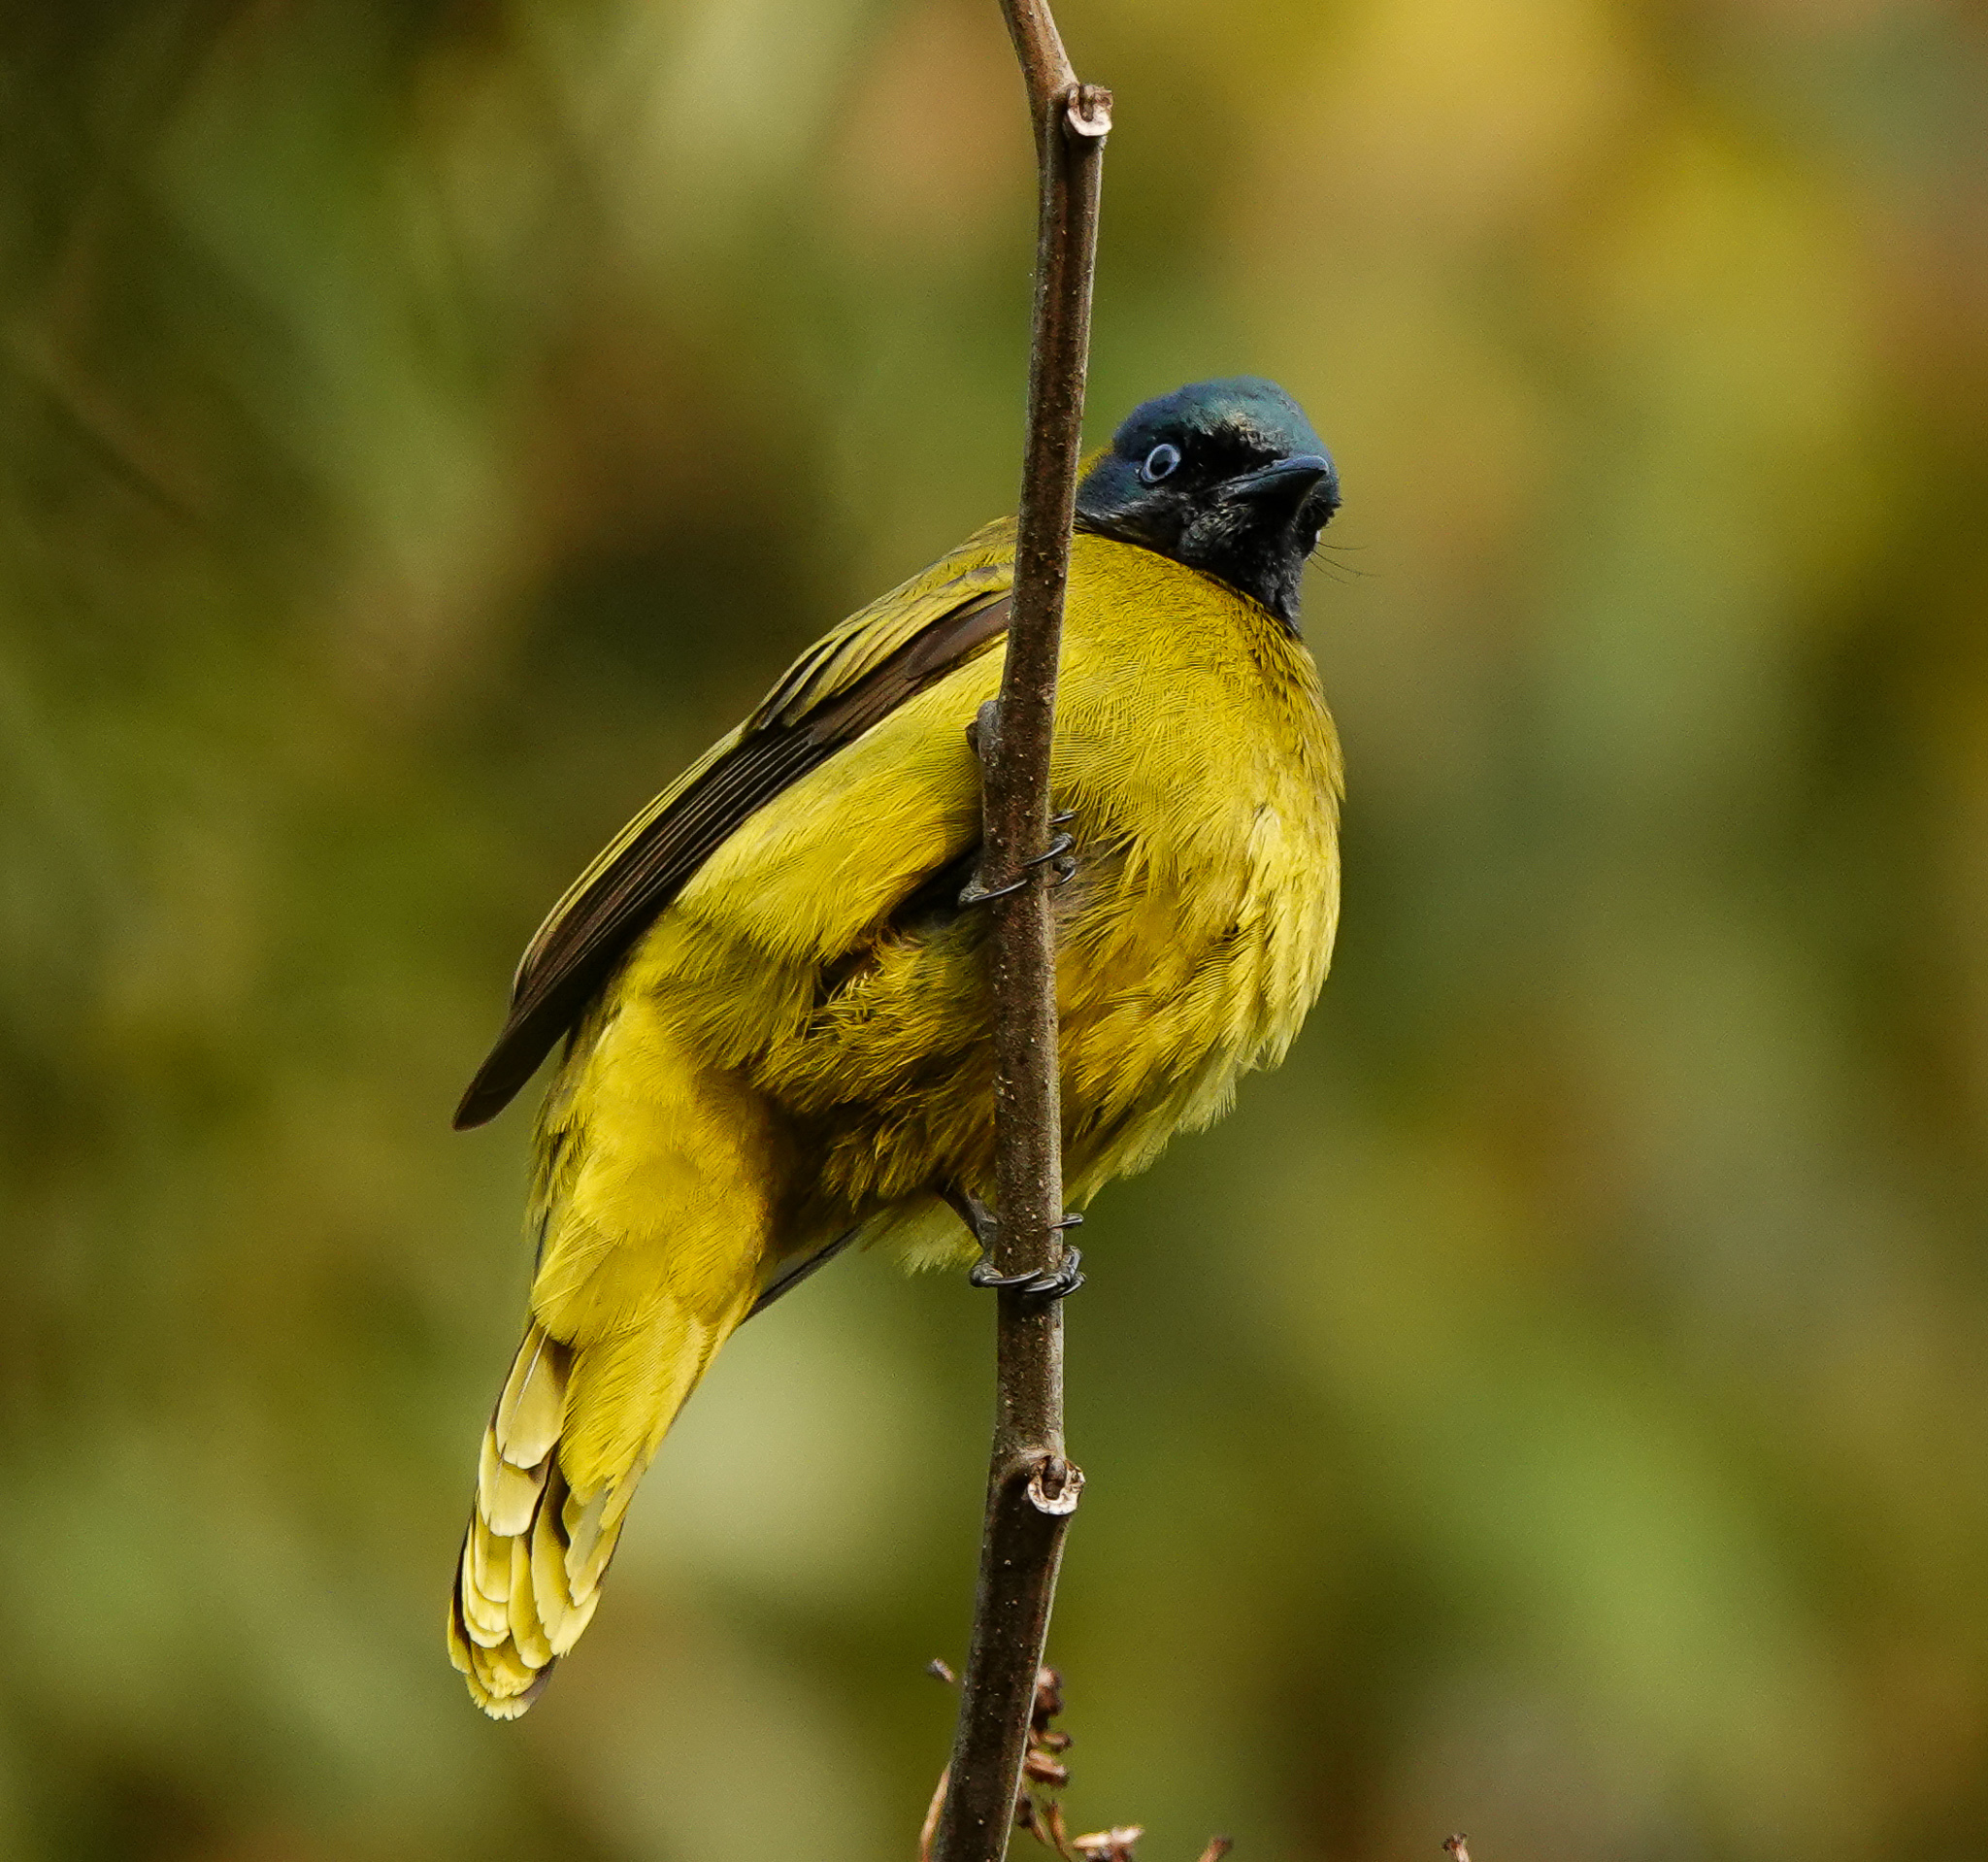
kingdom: Animalia
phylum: Chordata
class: Aves
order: Passeriformes
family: Pycnonotidae
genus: Microtarsus
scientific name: Microtarsus
